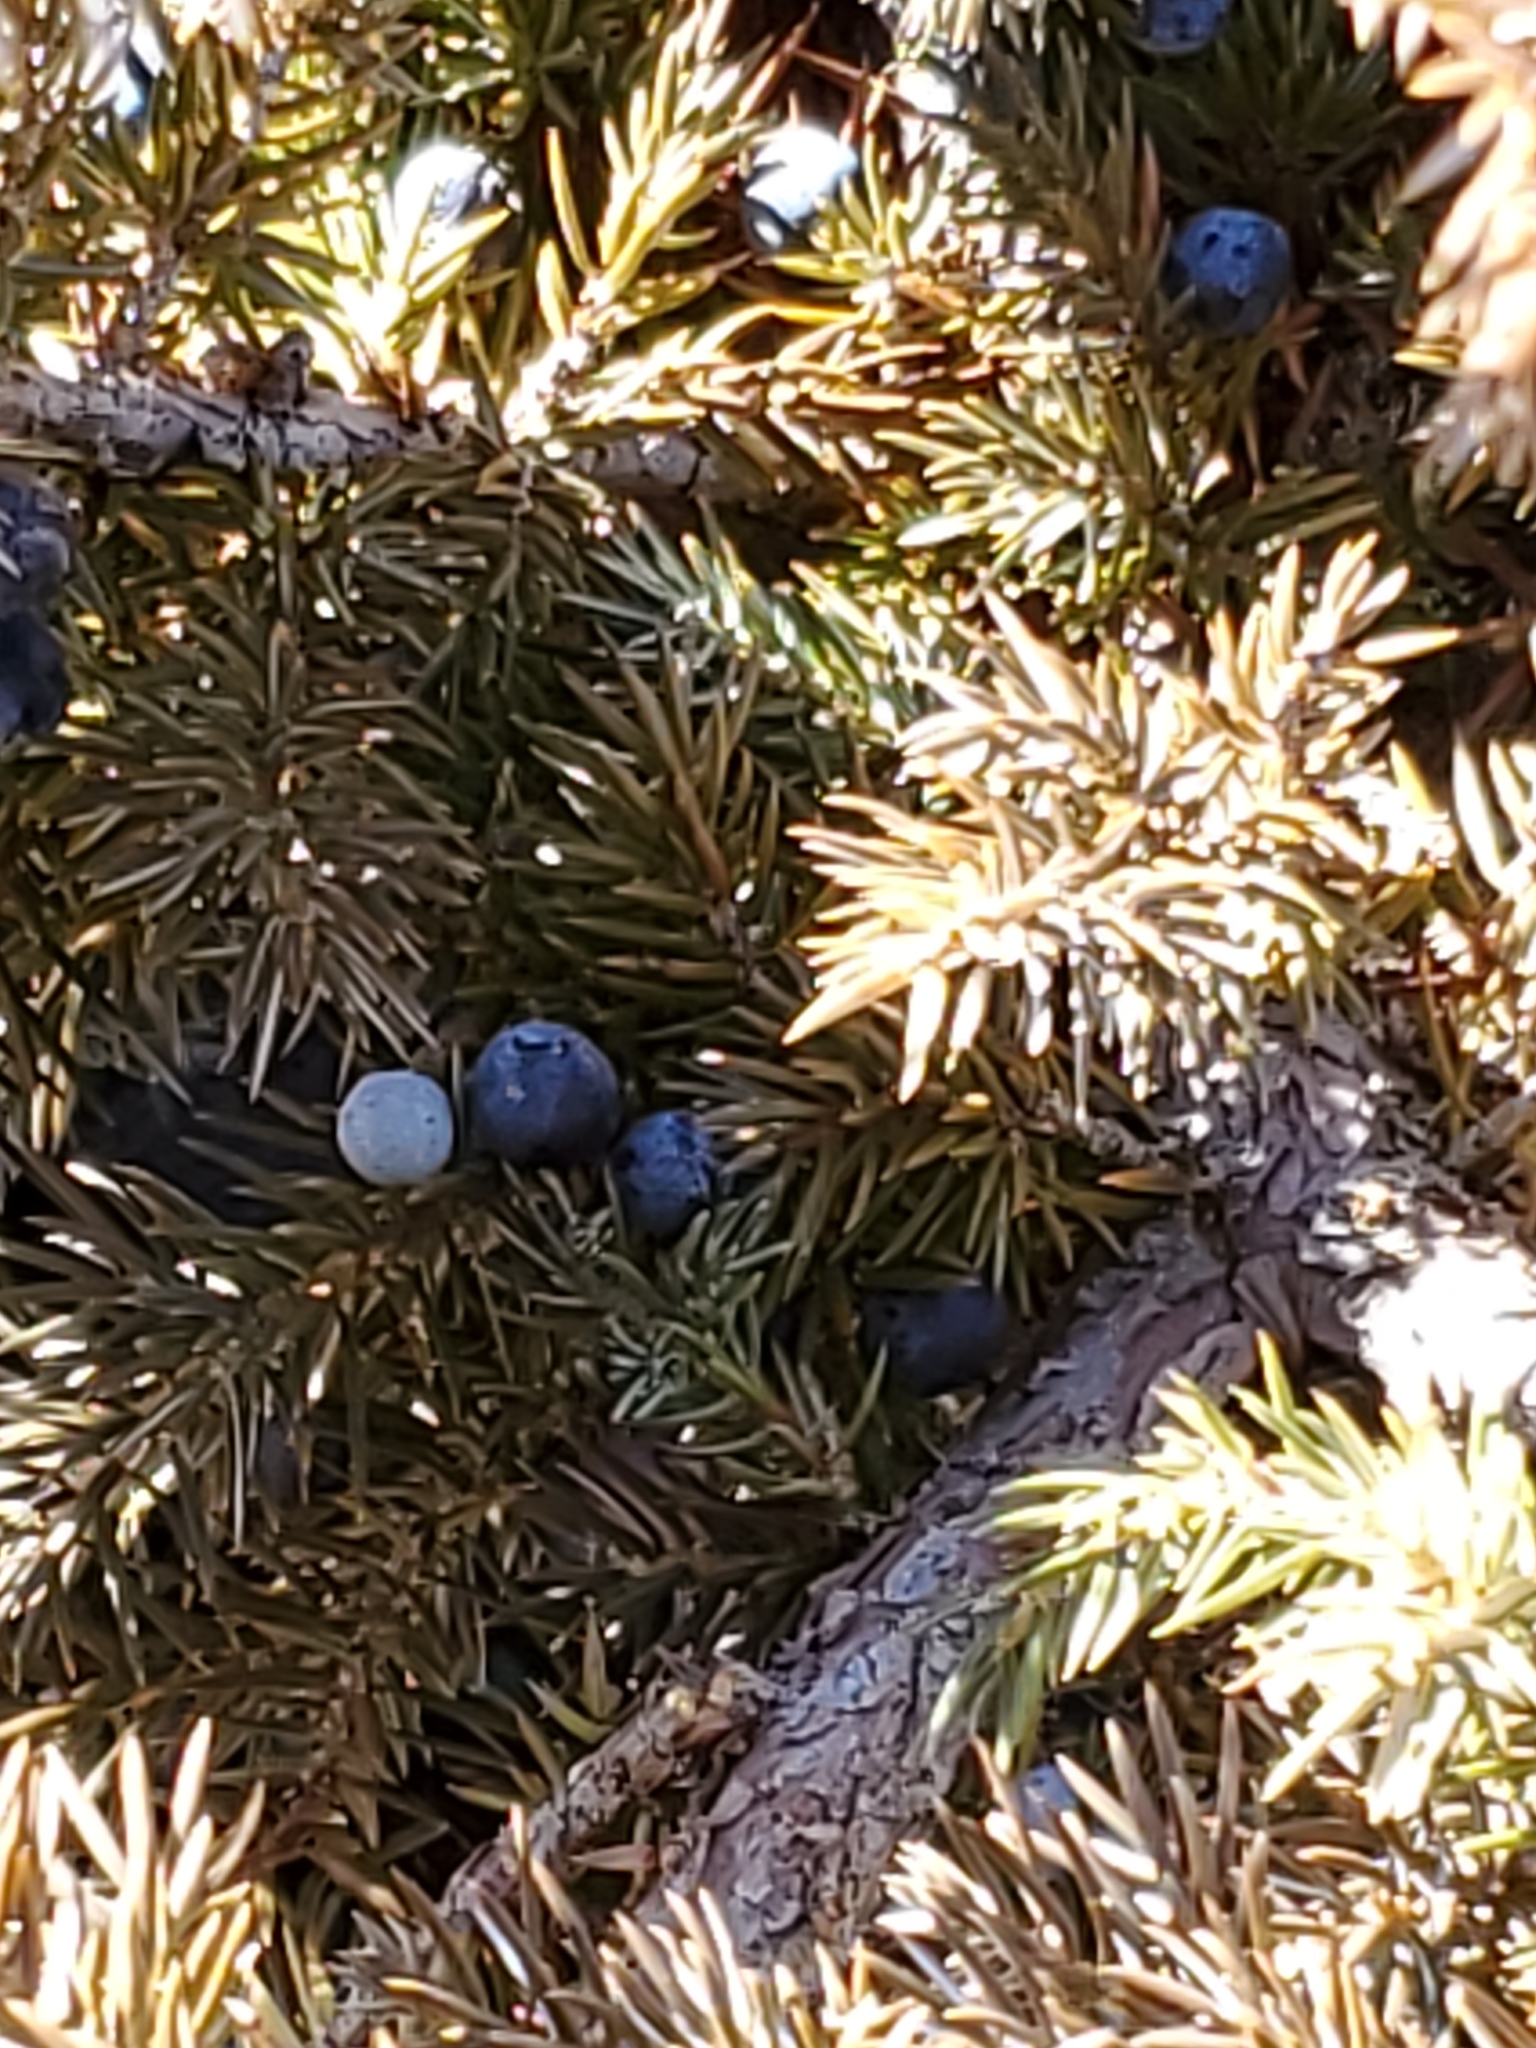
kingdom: Plantae
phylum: Tracheophyta
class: Pinopsida
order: Pinales
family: Cupressaceae
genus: Juniperus
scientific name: Juniperus communis
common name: Common juniper
